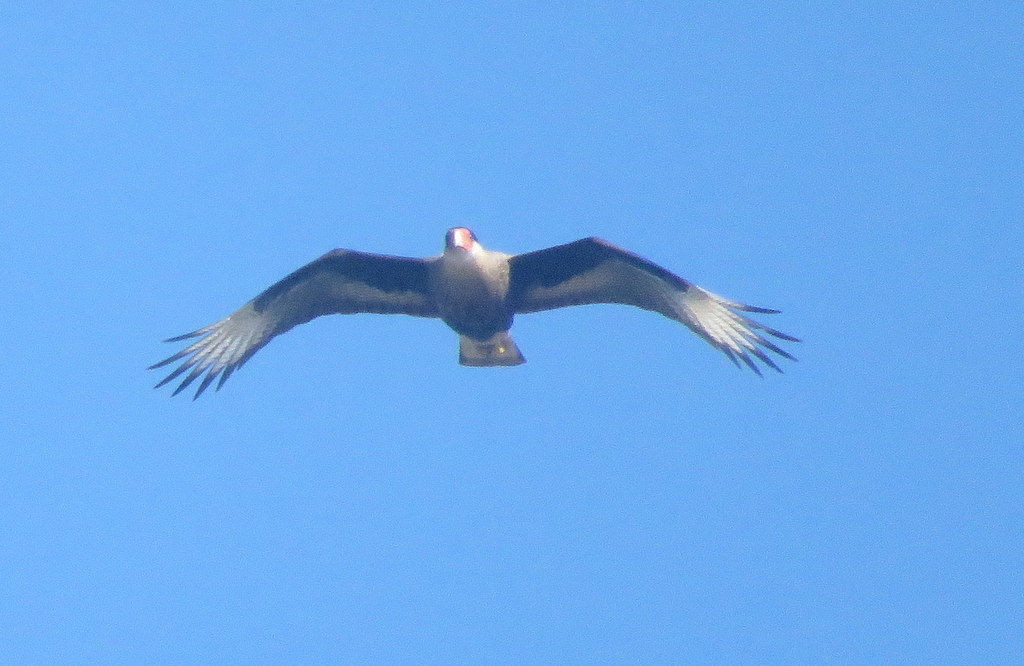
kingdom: Animalia
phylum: Chordata
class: Aves
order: Falconiformes
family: Falconidae
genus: Caracara
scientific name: Caracara plancus
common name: Southern caracara
